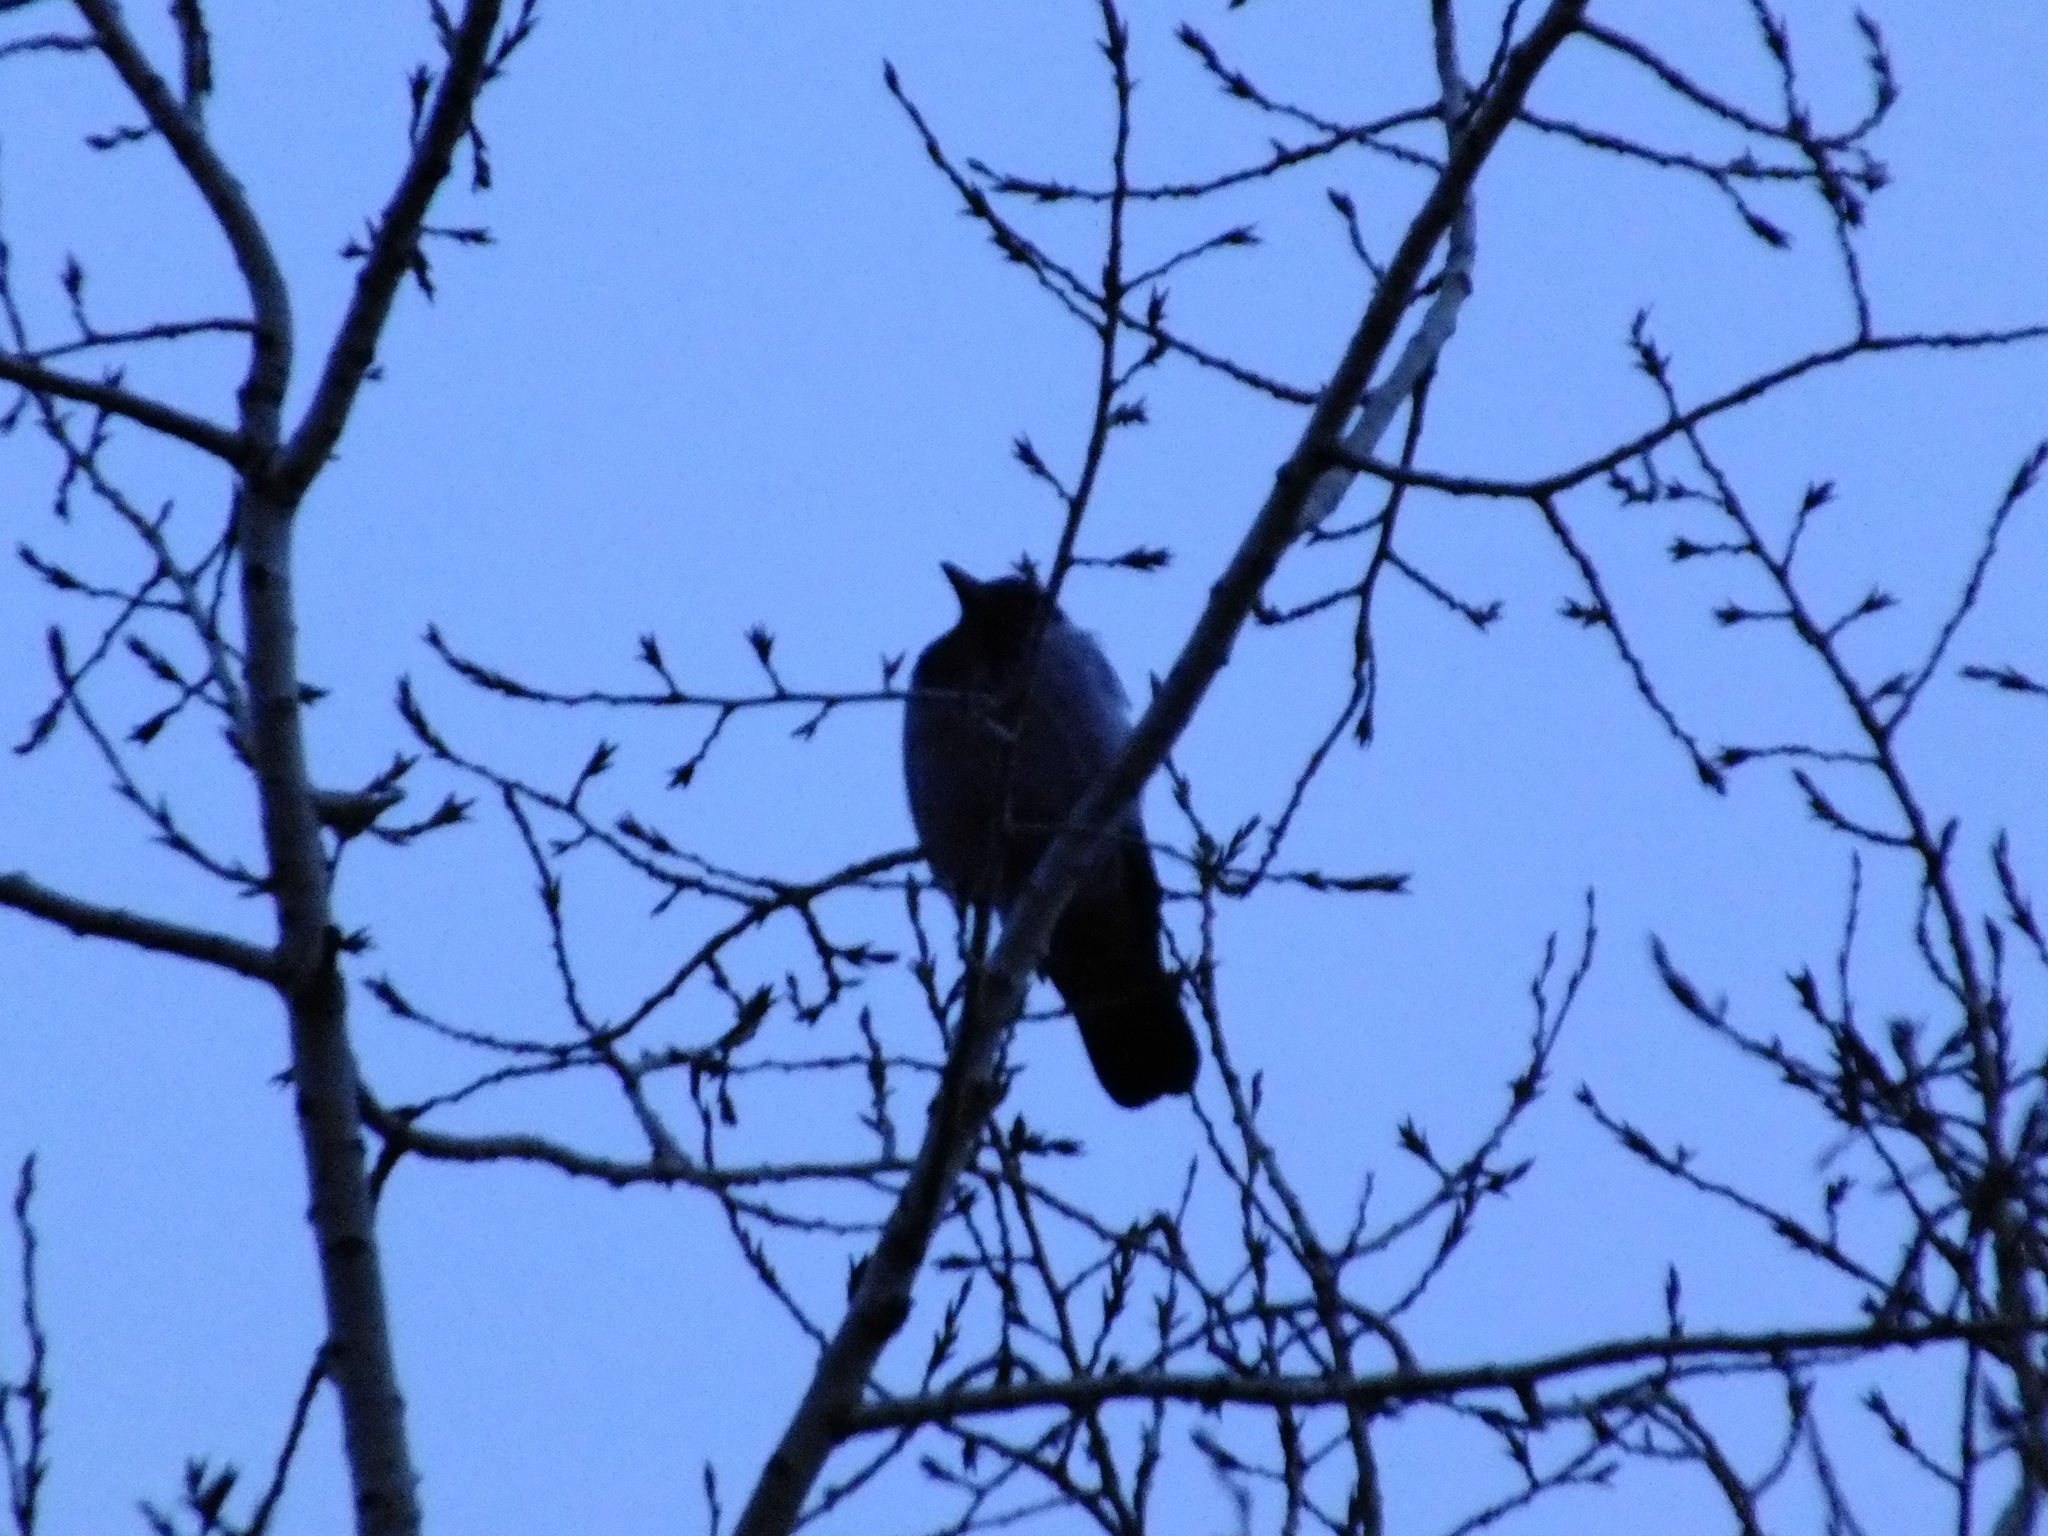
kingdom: Animalia
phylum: Chordata
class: Aves
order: Passeriformes
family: Corvidae
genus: Coloeus
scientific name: Coloeus monedula
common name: Western jackdaw
